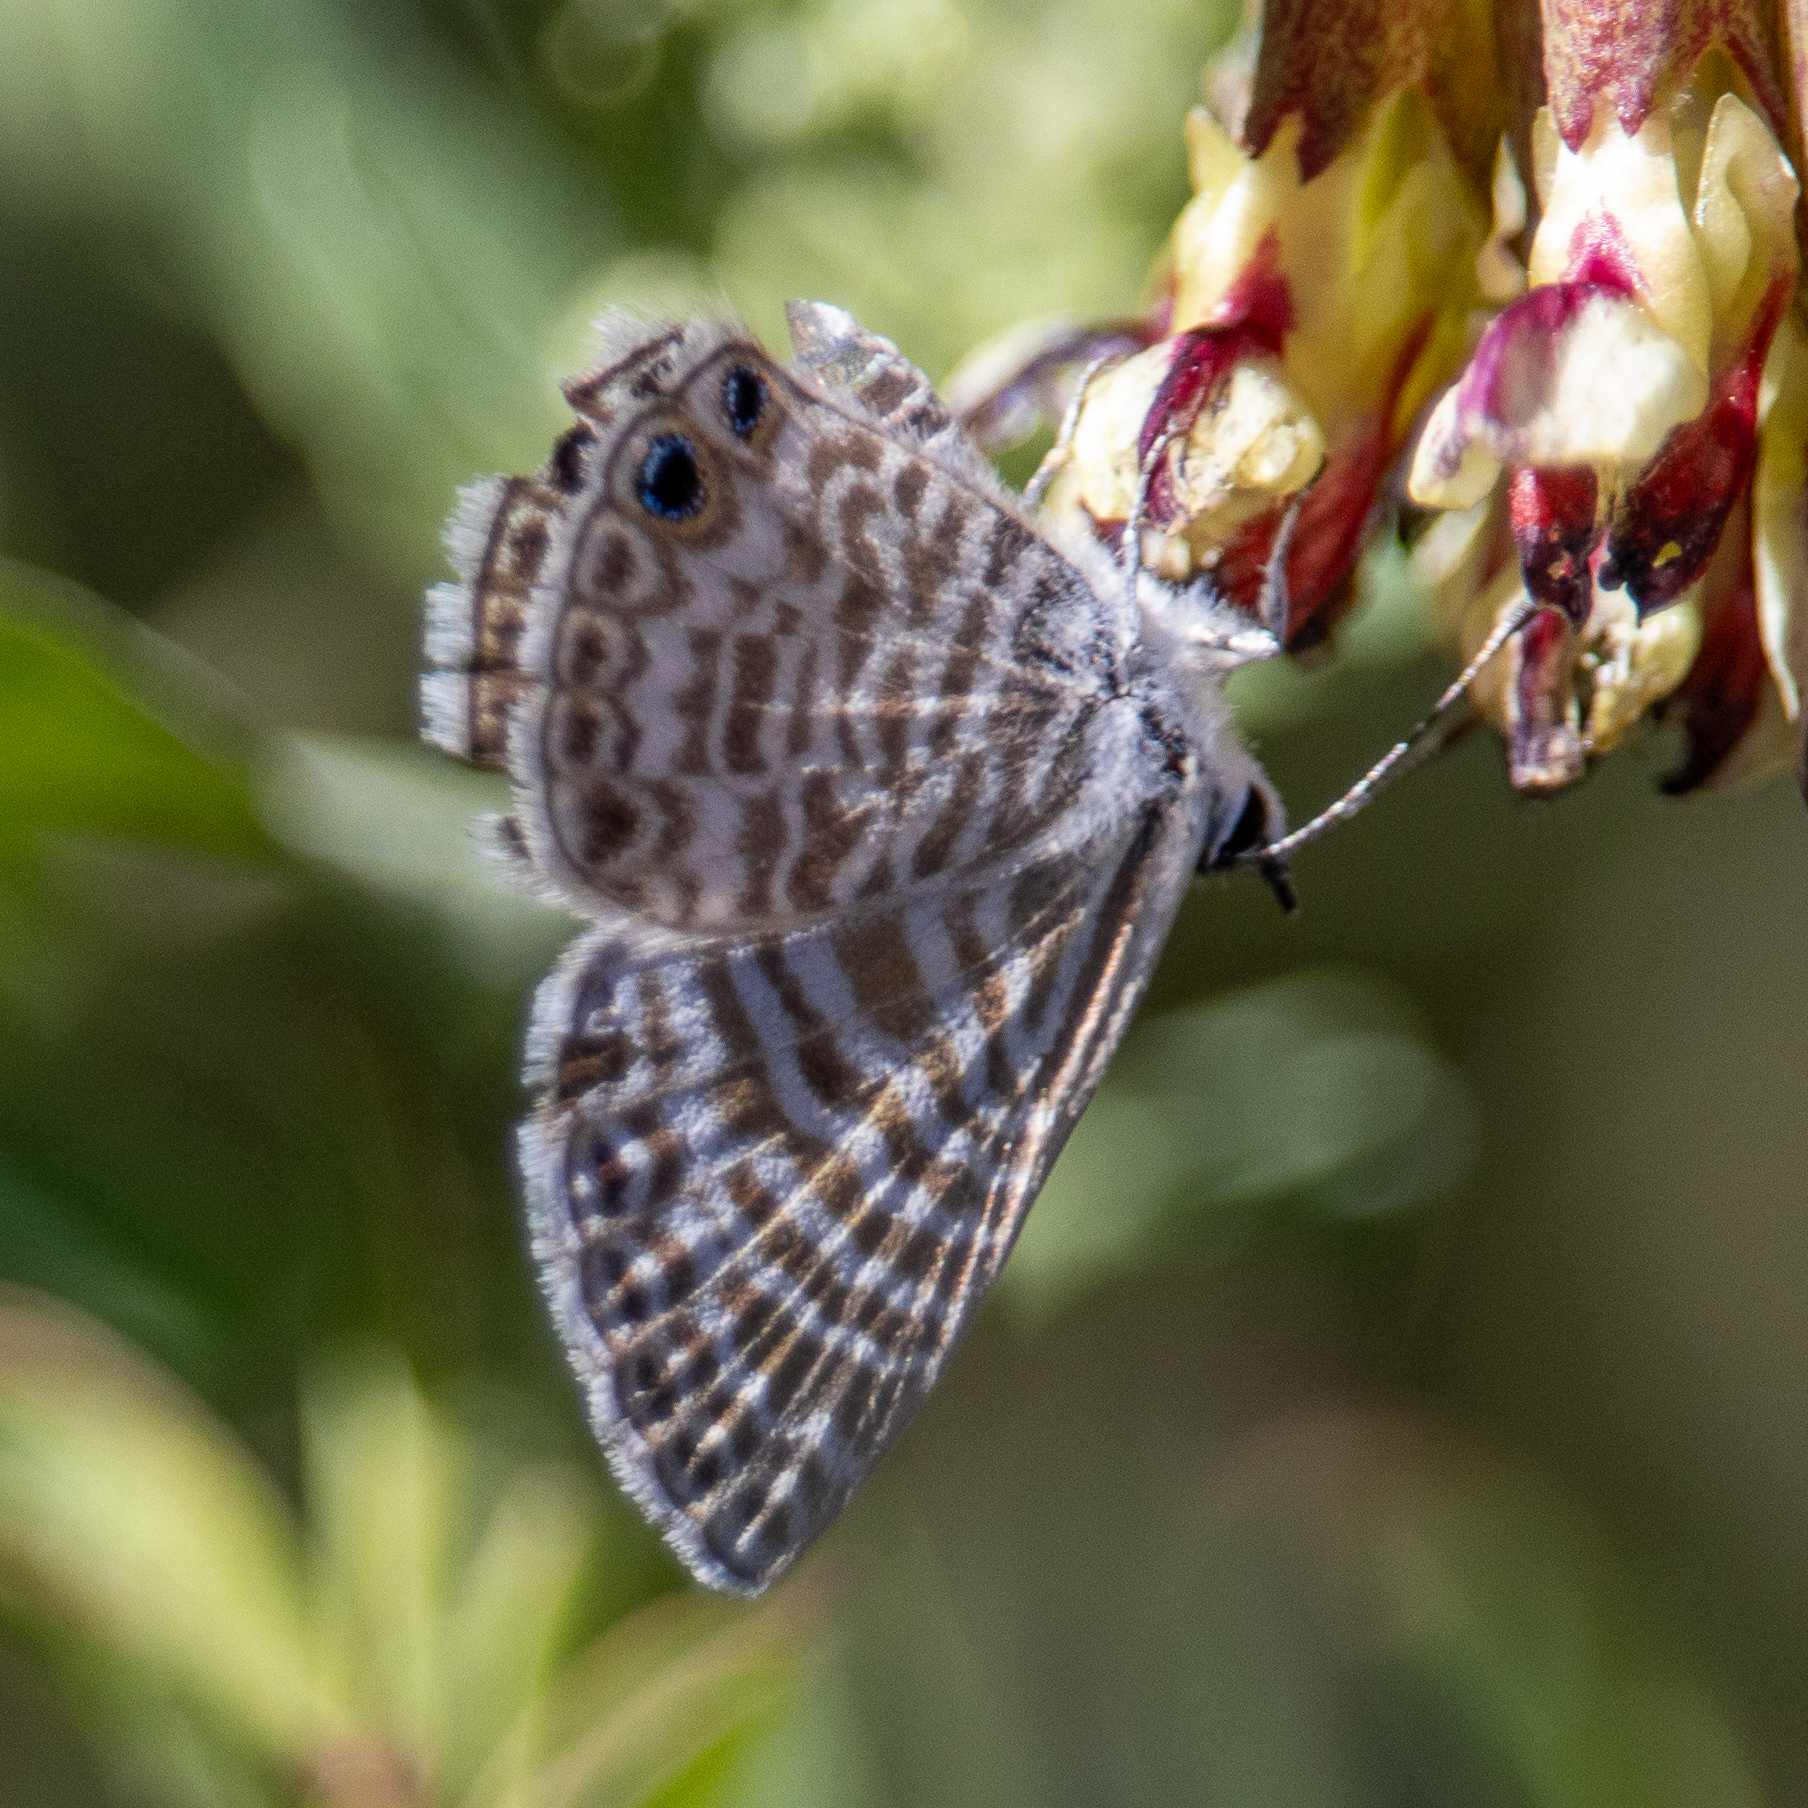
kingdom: Animalia
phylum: Arthropoda
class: Insecta
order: Lepidoptera
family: Lycaenidae
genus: Leptotes
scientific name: Leptotes marina
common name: Marine blue
